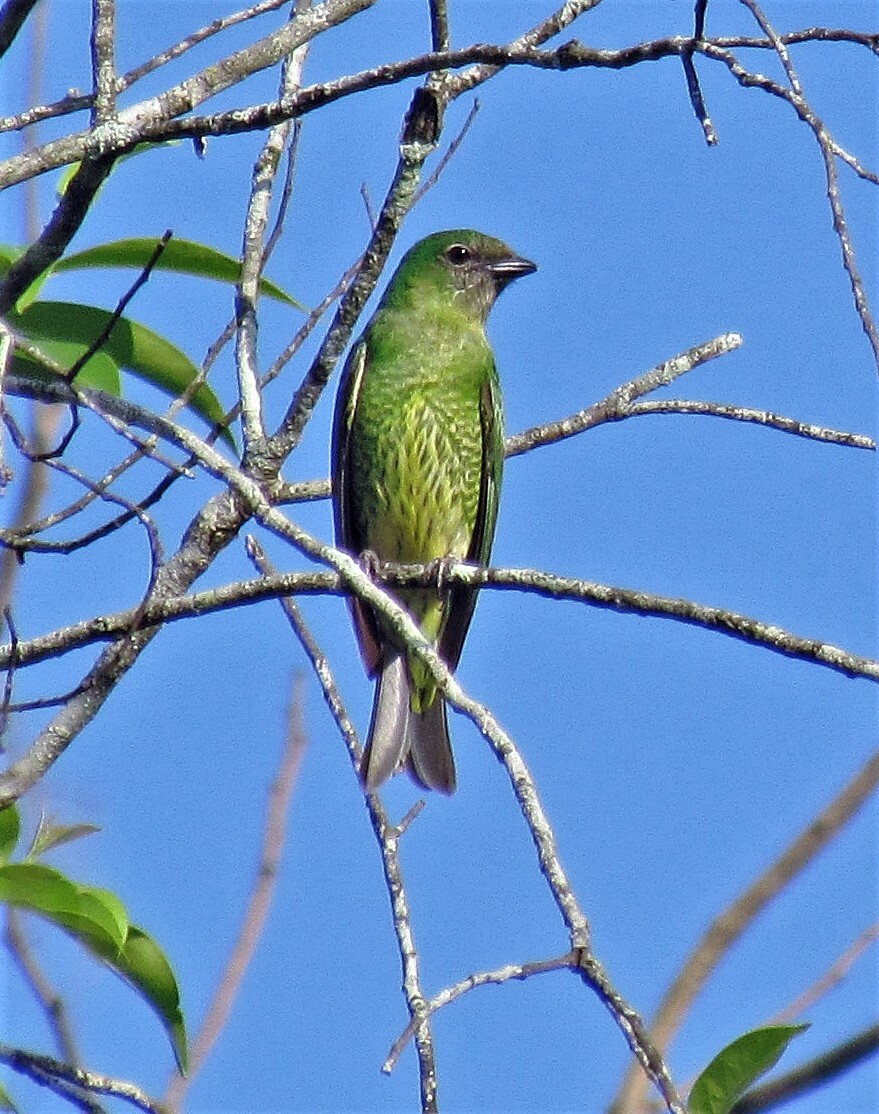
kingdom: Animalia
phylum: Chordata
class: Aves
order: Passeriformes
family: Thraupidae
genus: Tersina
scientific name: Tersina viridis
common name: Swallow tanager
